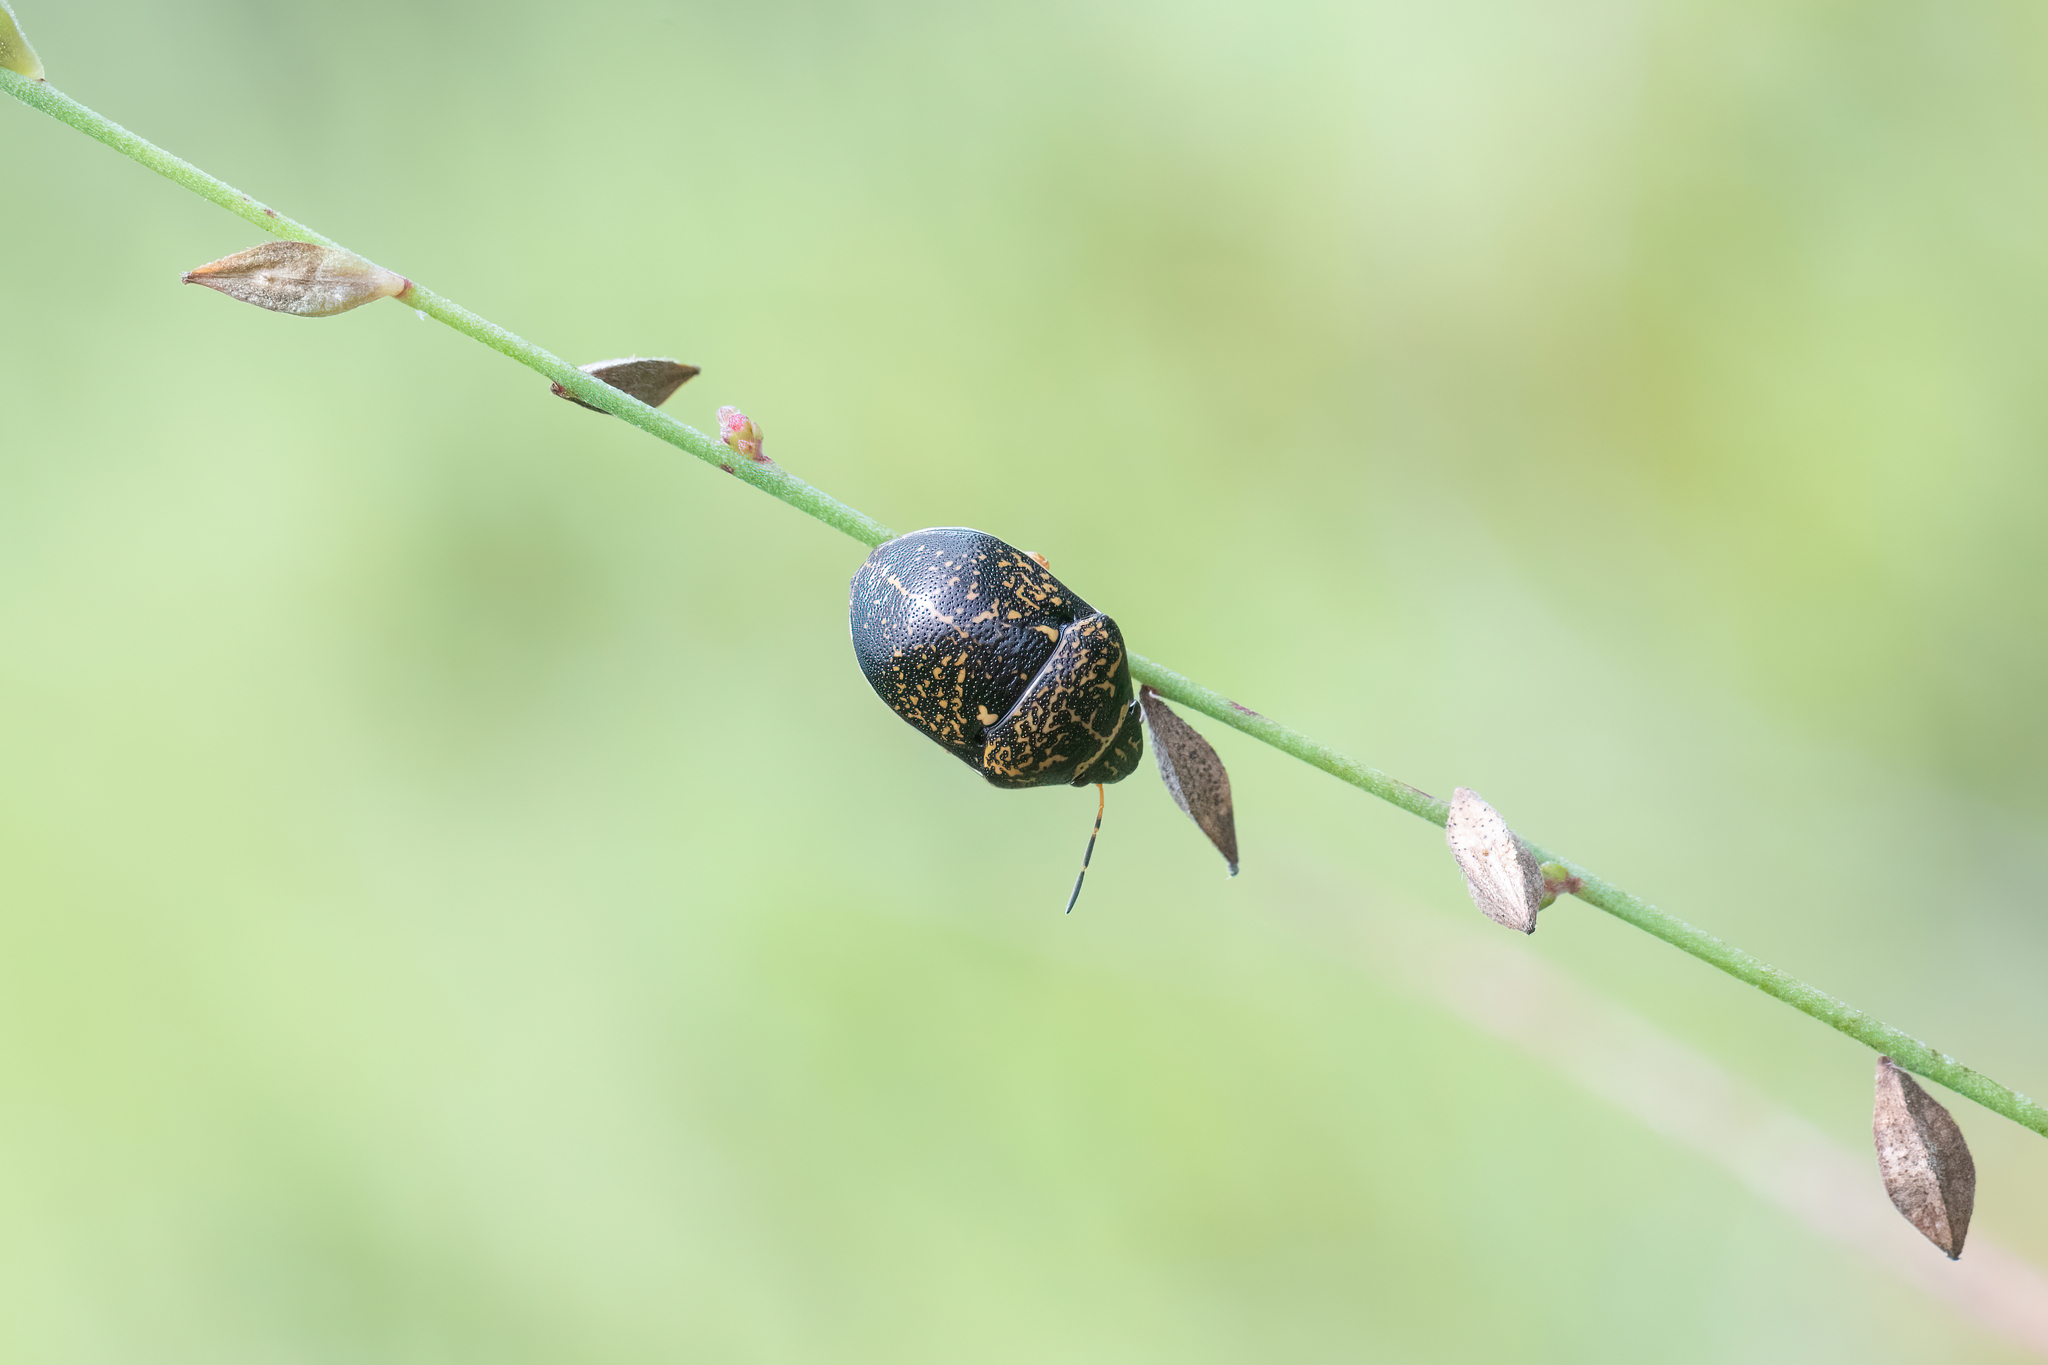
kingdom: Animalia
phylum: Arthropoda
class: Insecta
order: Hemiptera
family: Scutelleridae
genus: Orsilochides
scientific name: Orsilochides guttata
